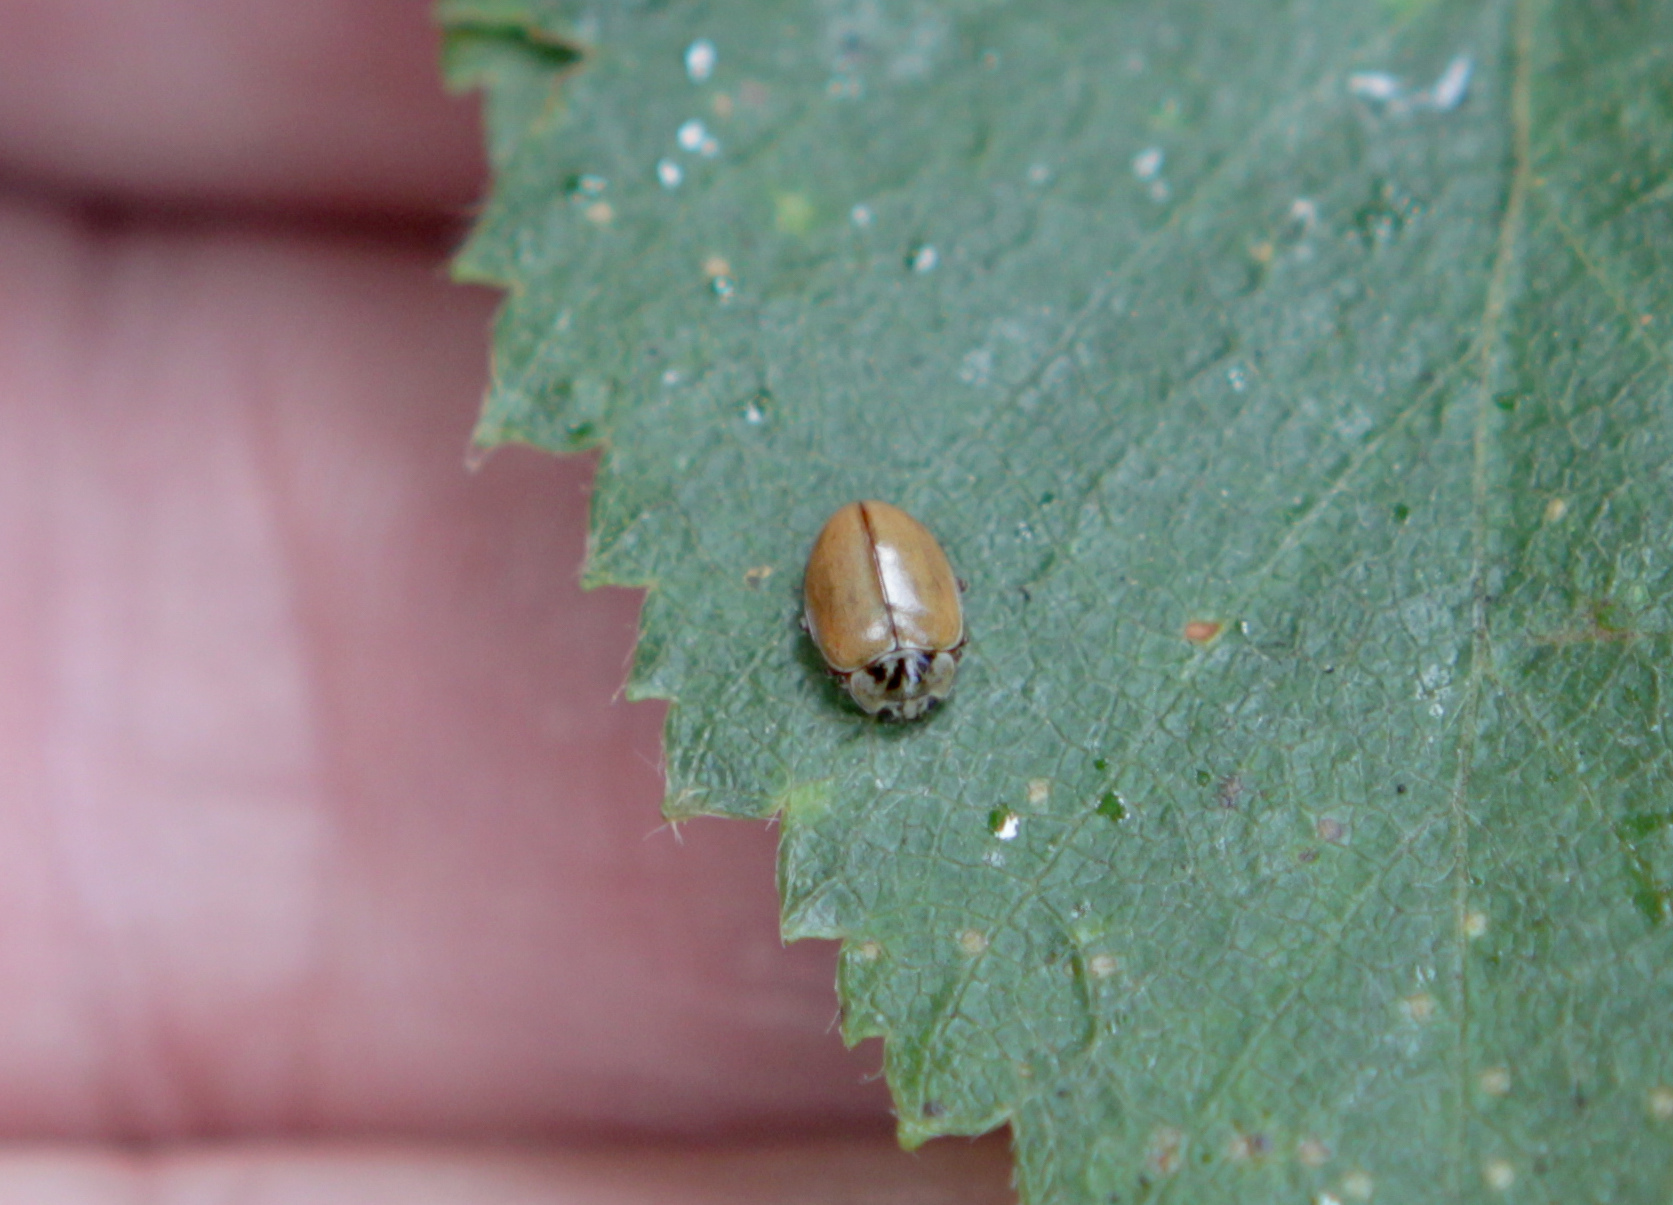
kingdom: Animalia
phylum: Arthropoda
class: Insecta
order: Coleoptera
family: Coccinellidae
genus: Aphidecta
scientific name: Aphidecta obliterata
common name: Larch ladybird
